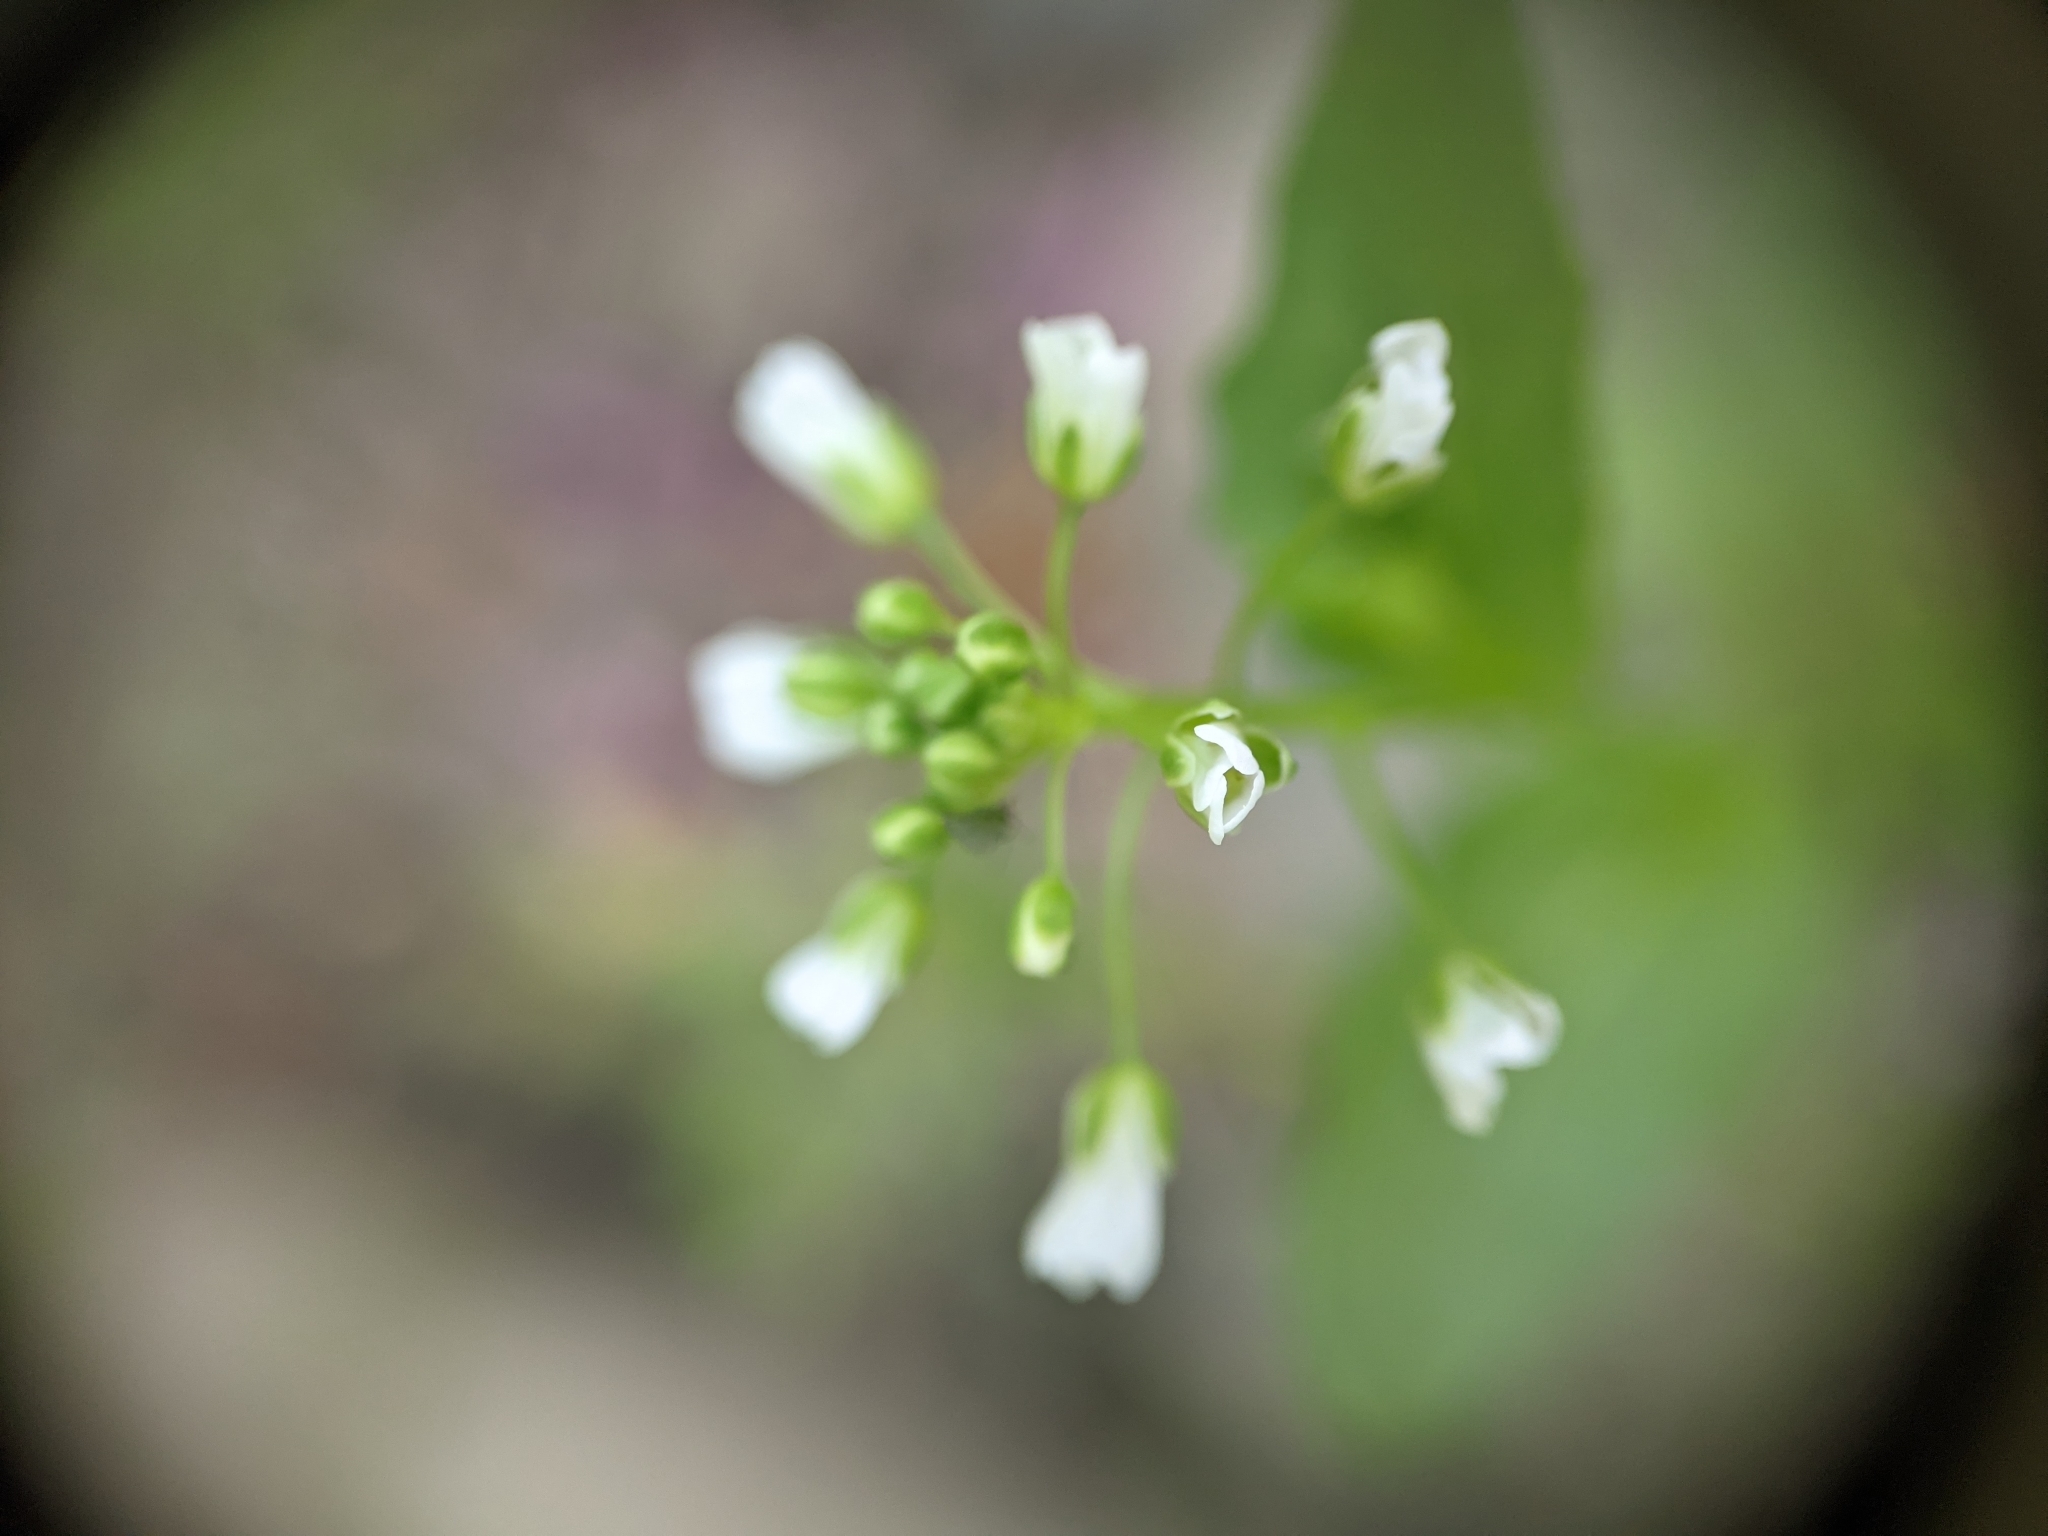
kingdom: Plantae
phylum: Tracheophyta
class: Magnoliopsida
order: Brassicales
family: Brassicaceae
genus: Thlaspi
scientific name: Thlaspi arvense
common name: Field pennycress
